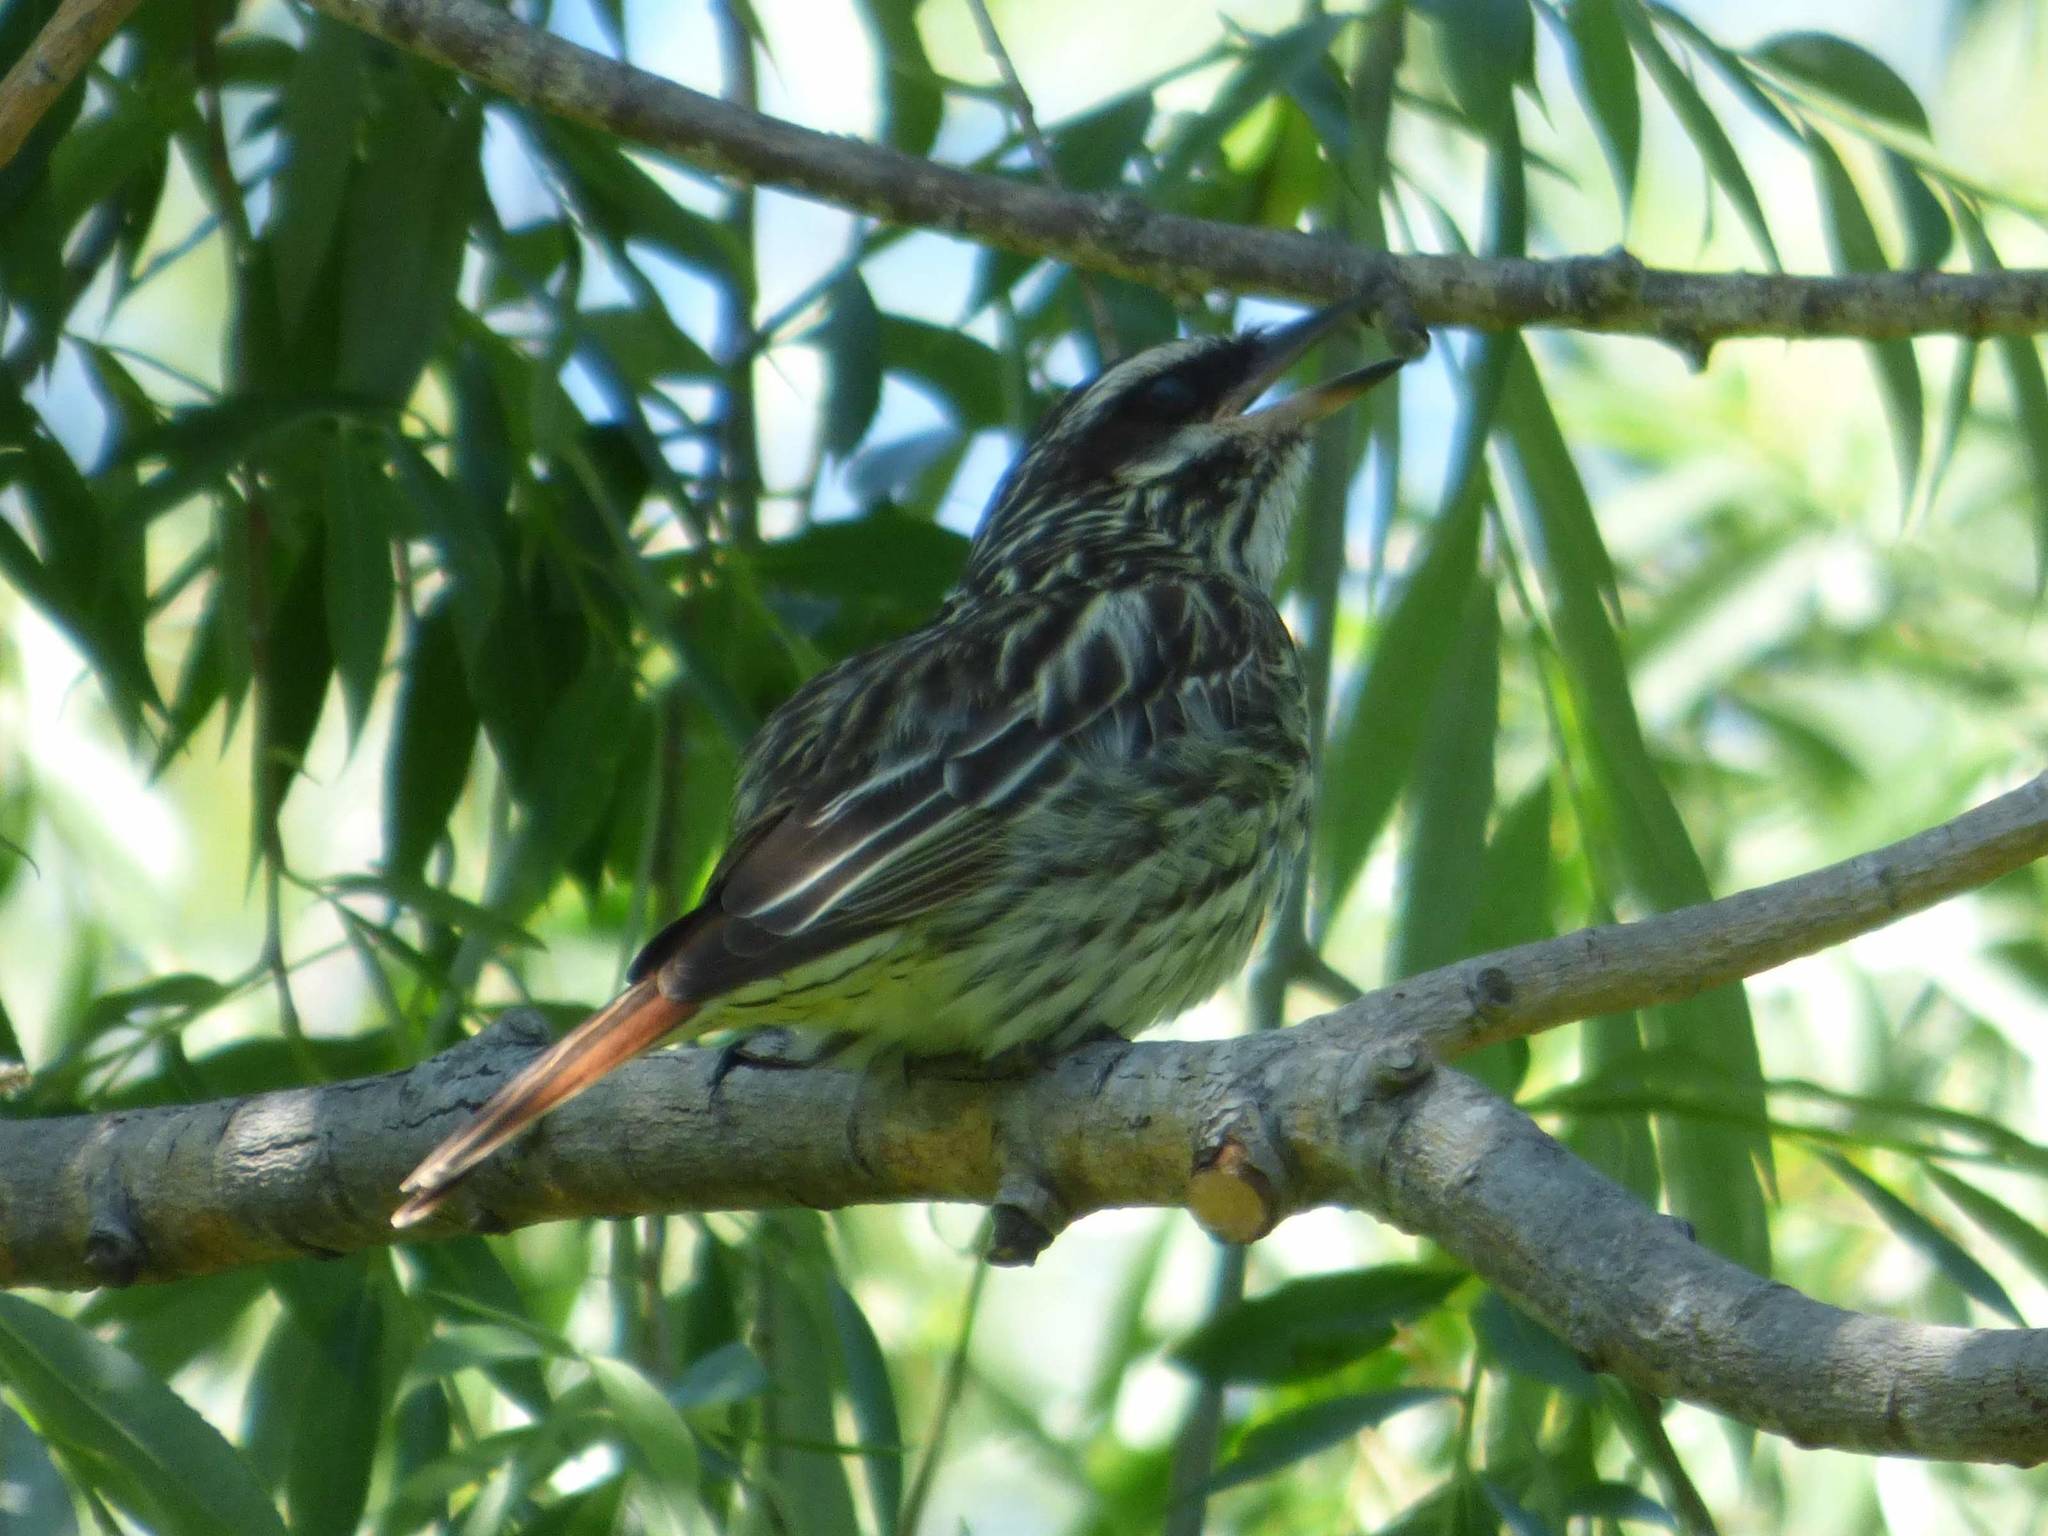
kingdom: Animalia
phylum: Chordata
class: Aves
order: Passeriformes
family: Tyrannidae
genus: Myiodynastes
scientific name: Myiodynastes maculatus
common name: Streaked flycatcher
